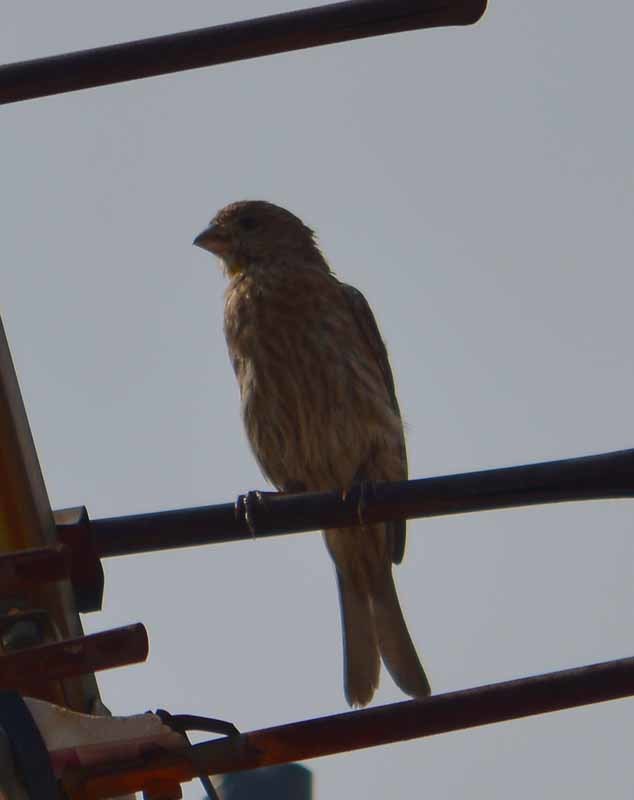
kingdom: Animalia
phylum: Chordata
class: Aves
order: Passeriformes
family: Fringillidae
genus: Haemorhous
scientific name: Haemorhous mexicanus
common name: House finch
